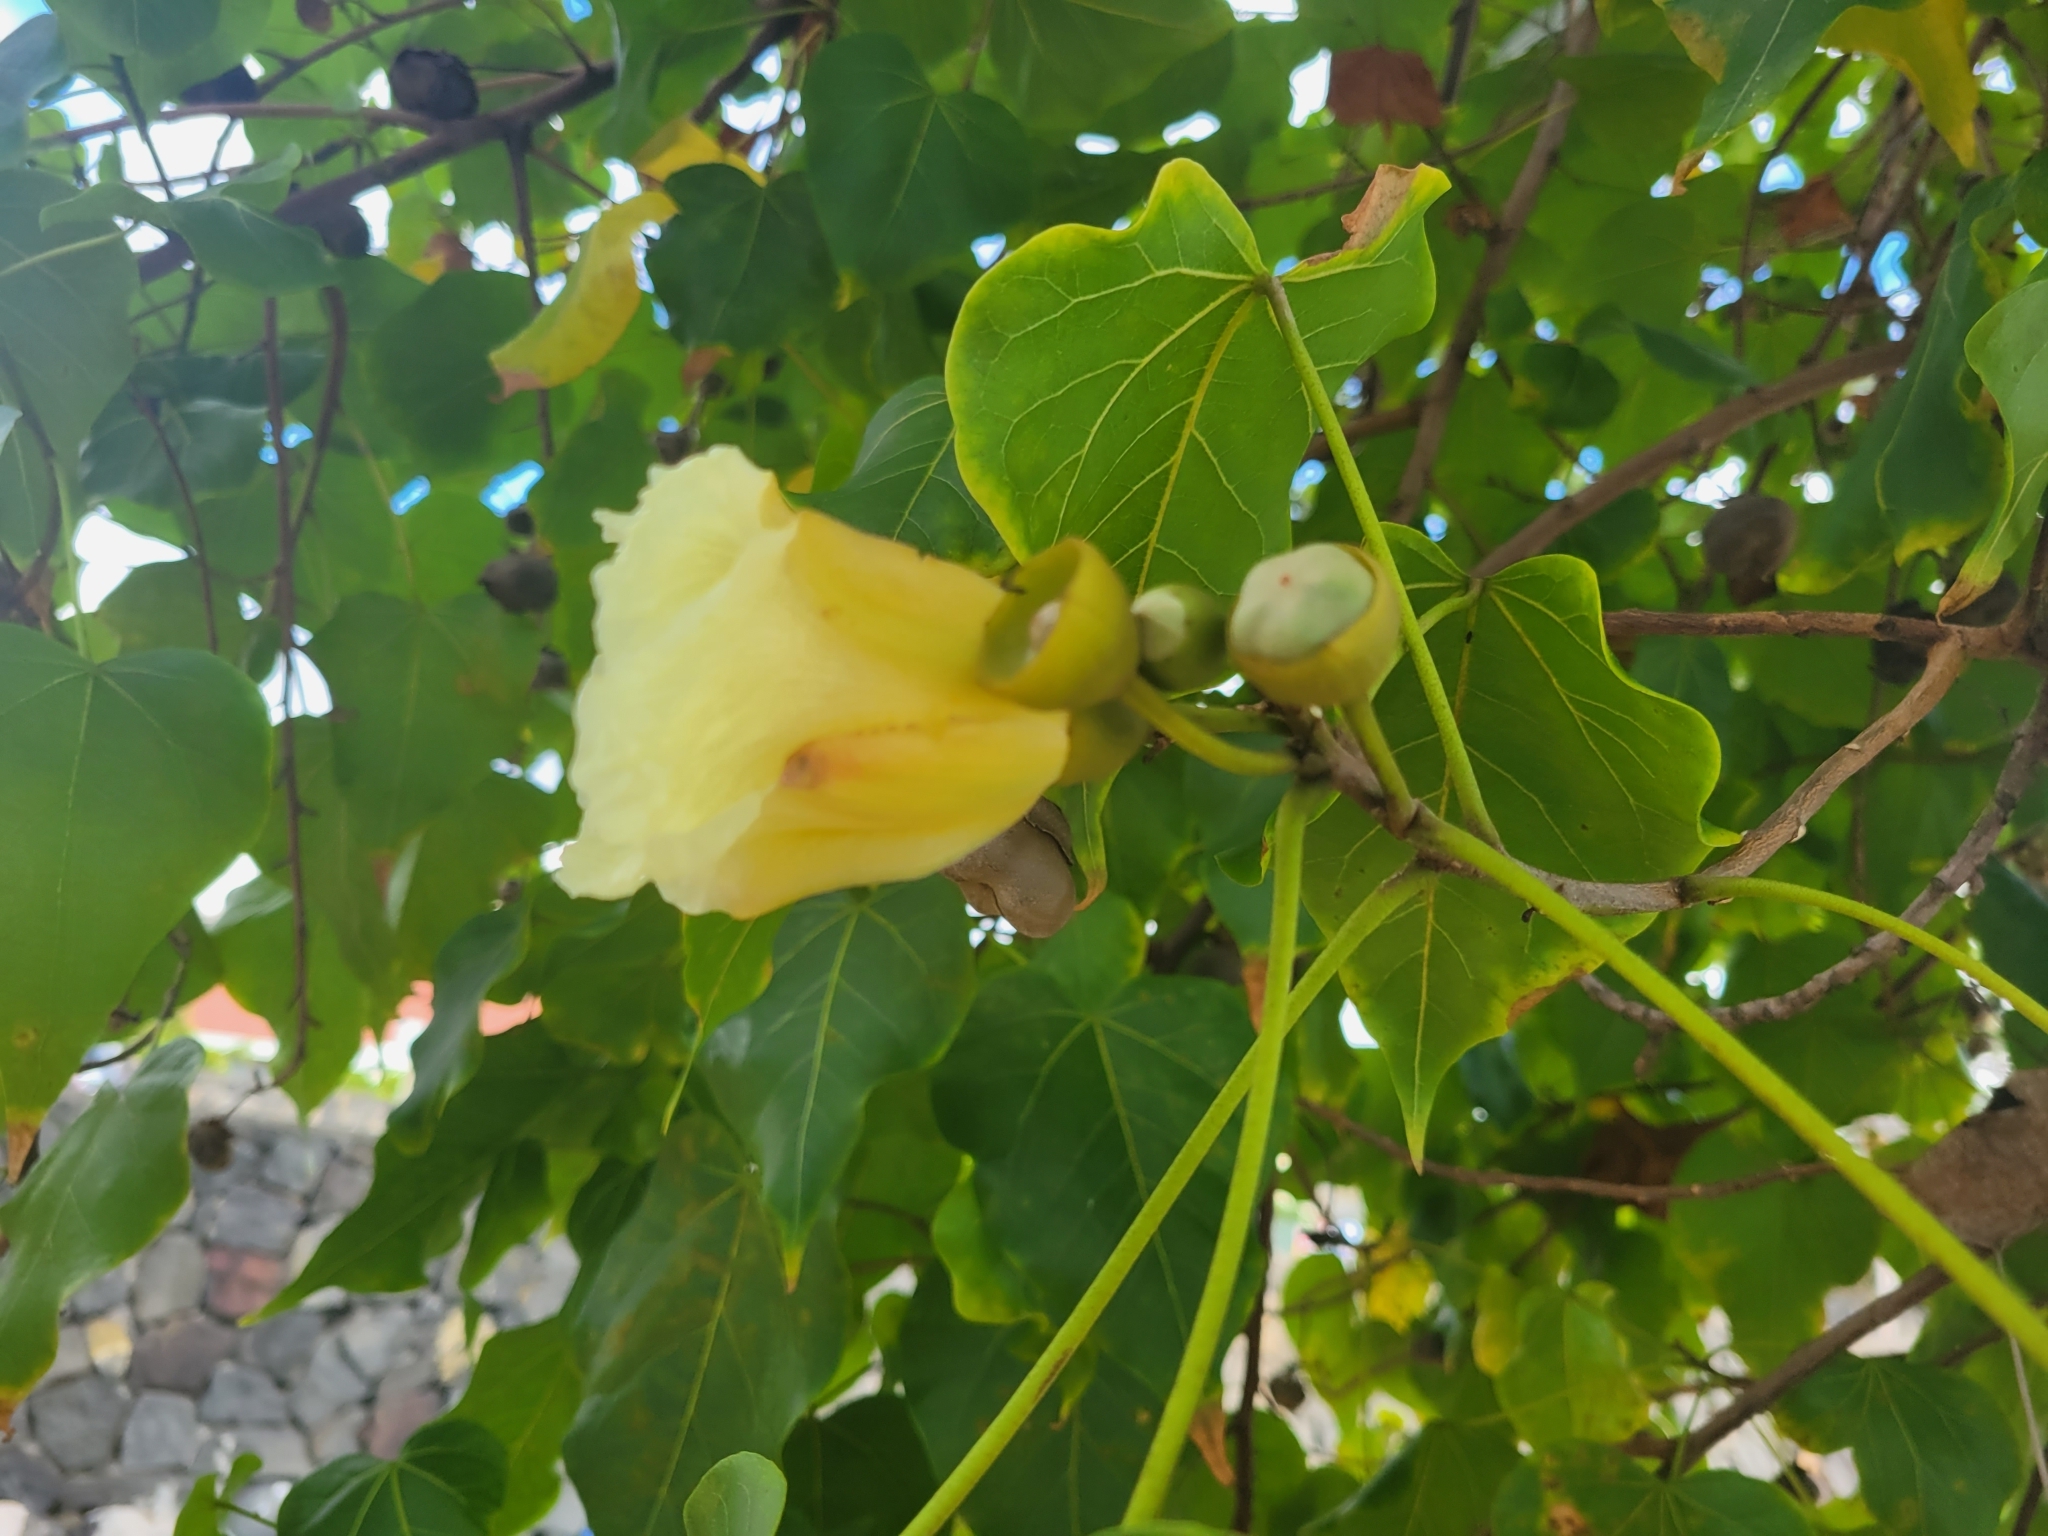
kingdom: Plantae
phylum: Tracheophyta
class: Magnoliopsida
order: Malvales
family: Malvaceae
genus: Talipariti
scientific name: Talipariti tiliaceum
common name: Sea hibiscus
